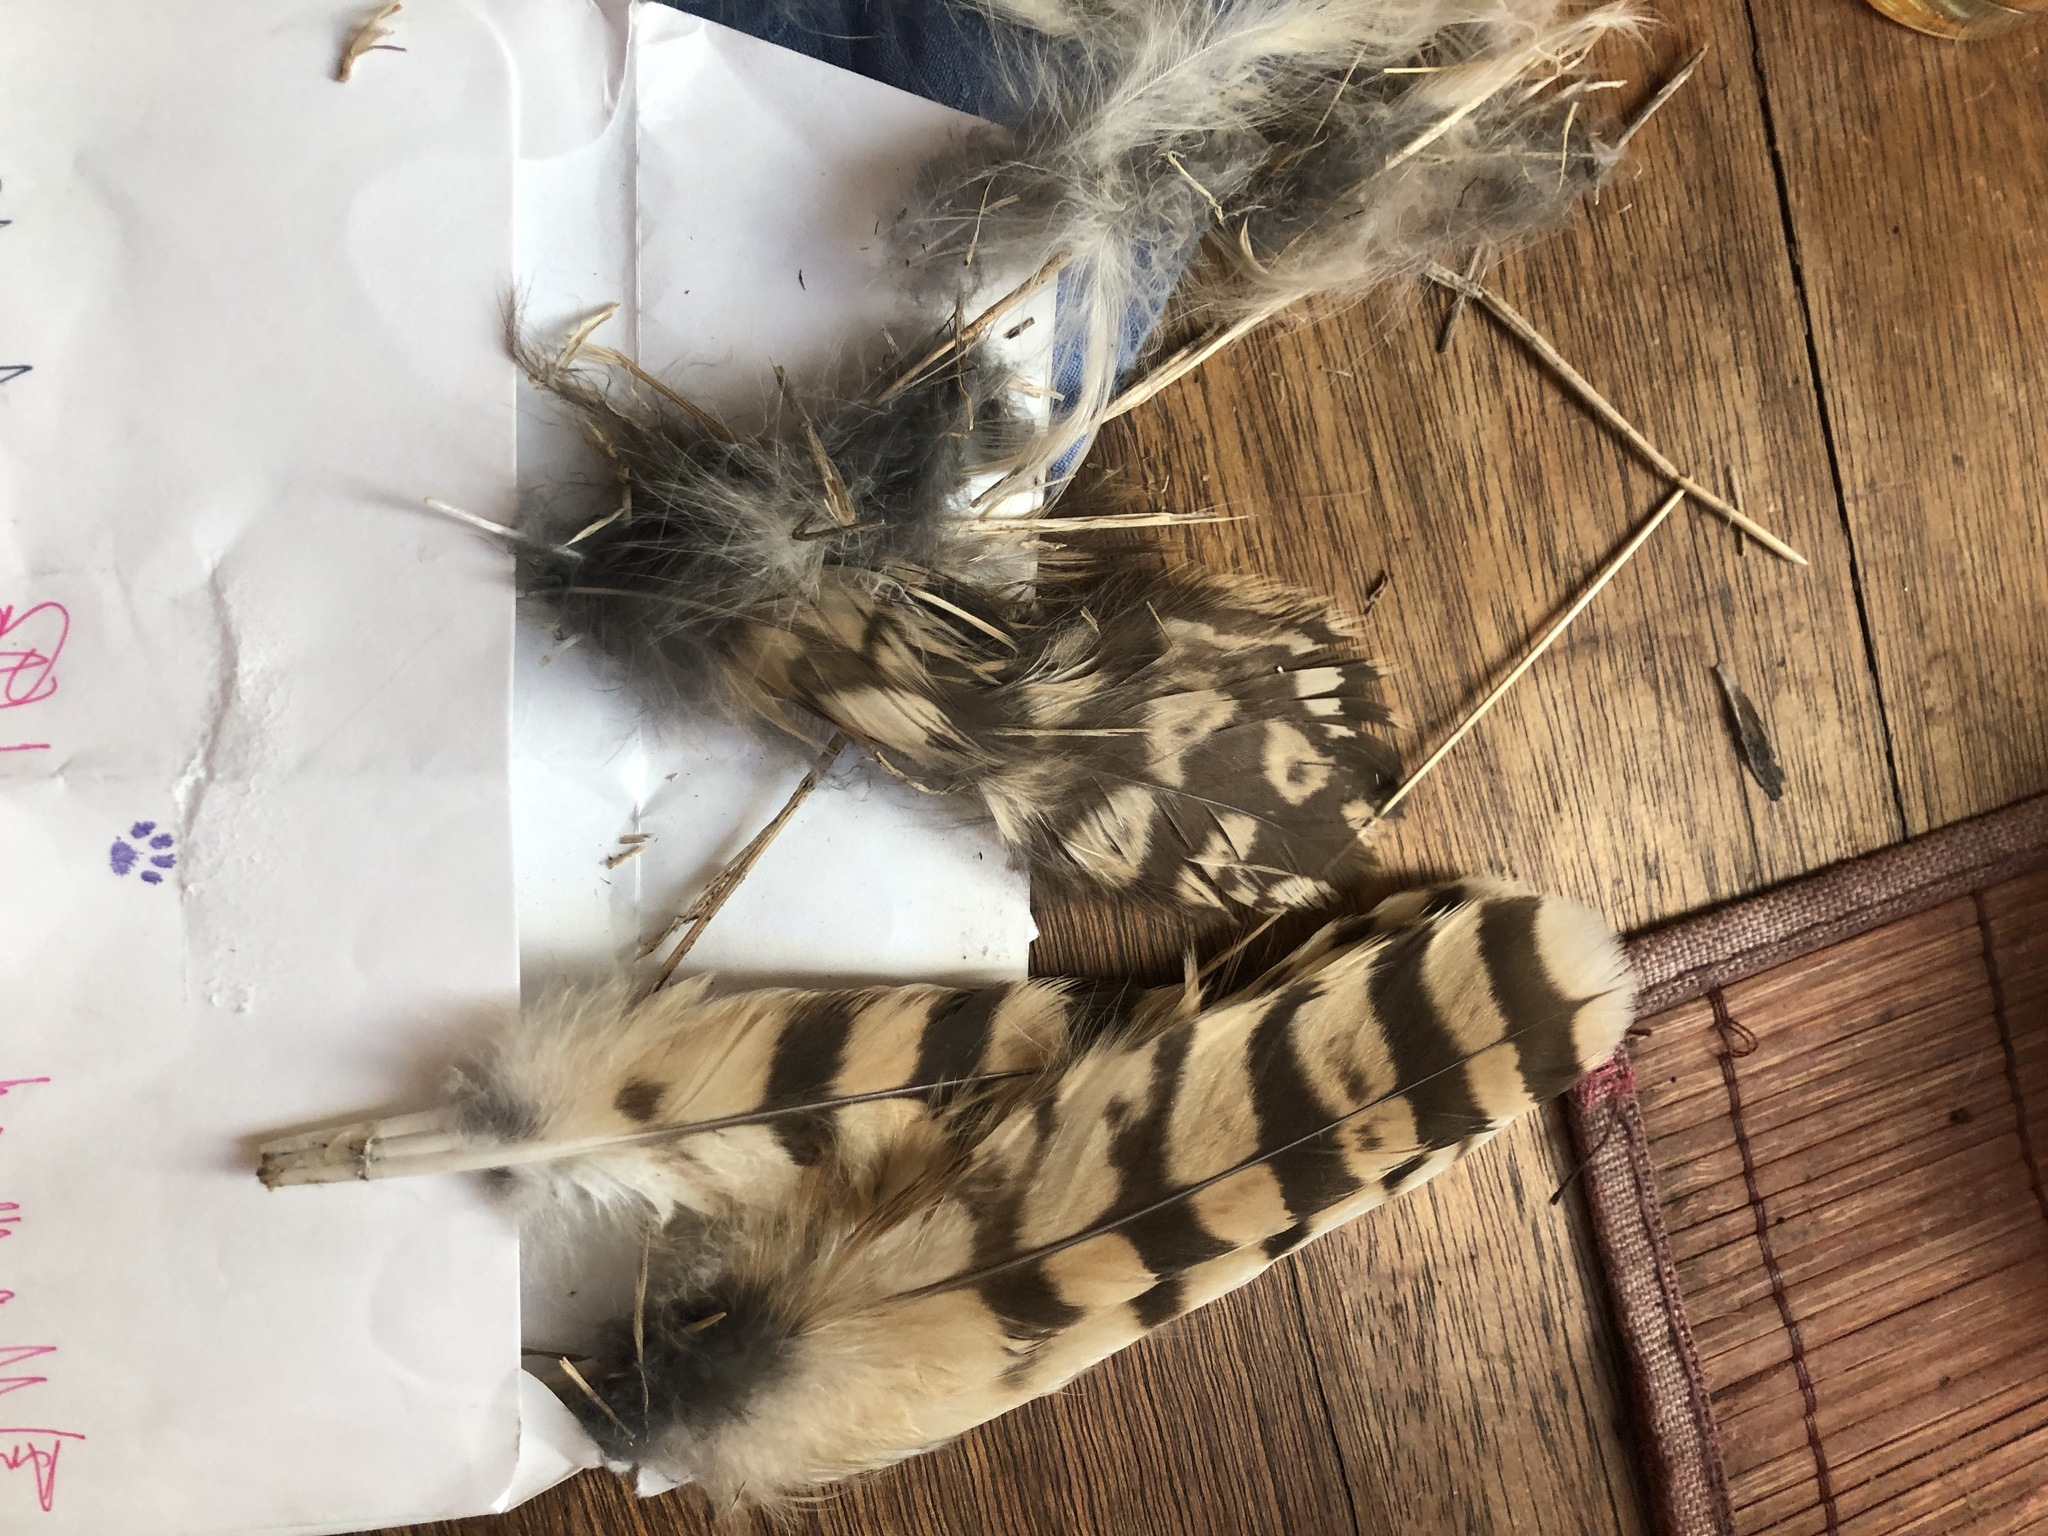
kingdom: Animalia
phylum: Chordata
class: Aves
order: Strigiformes
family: Strigidae
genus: Asio
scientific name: Asio flammeus
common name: Short-eared owl
